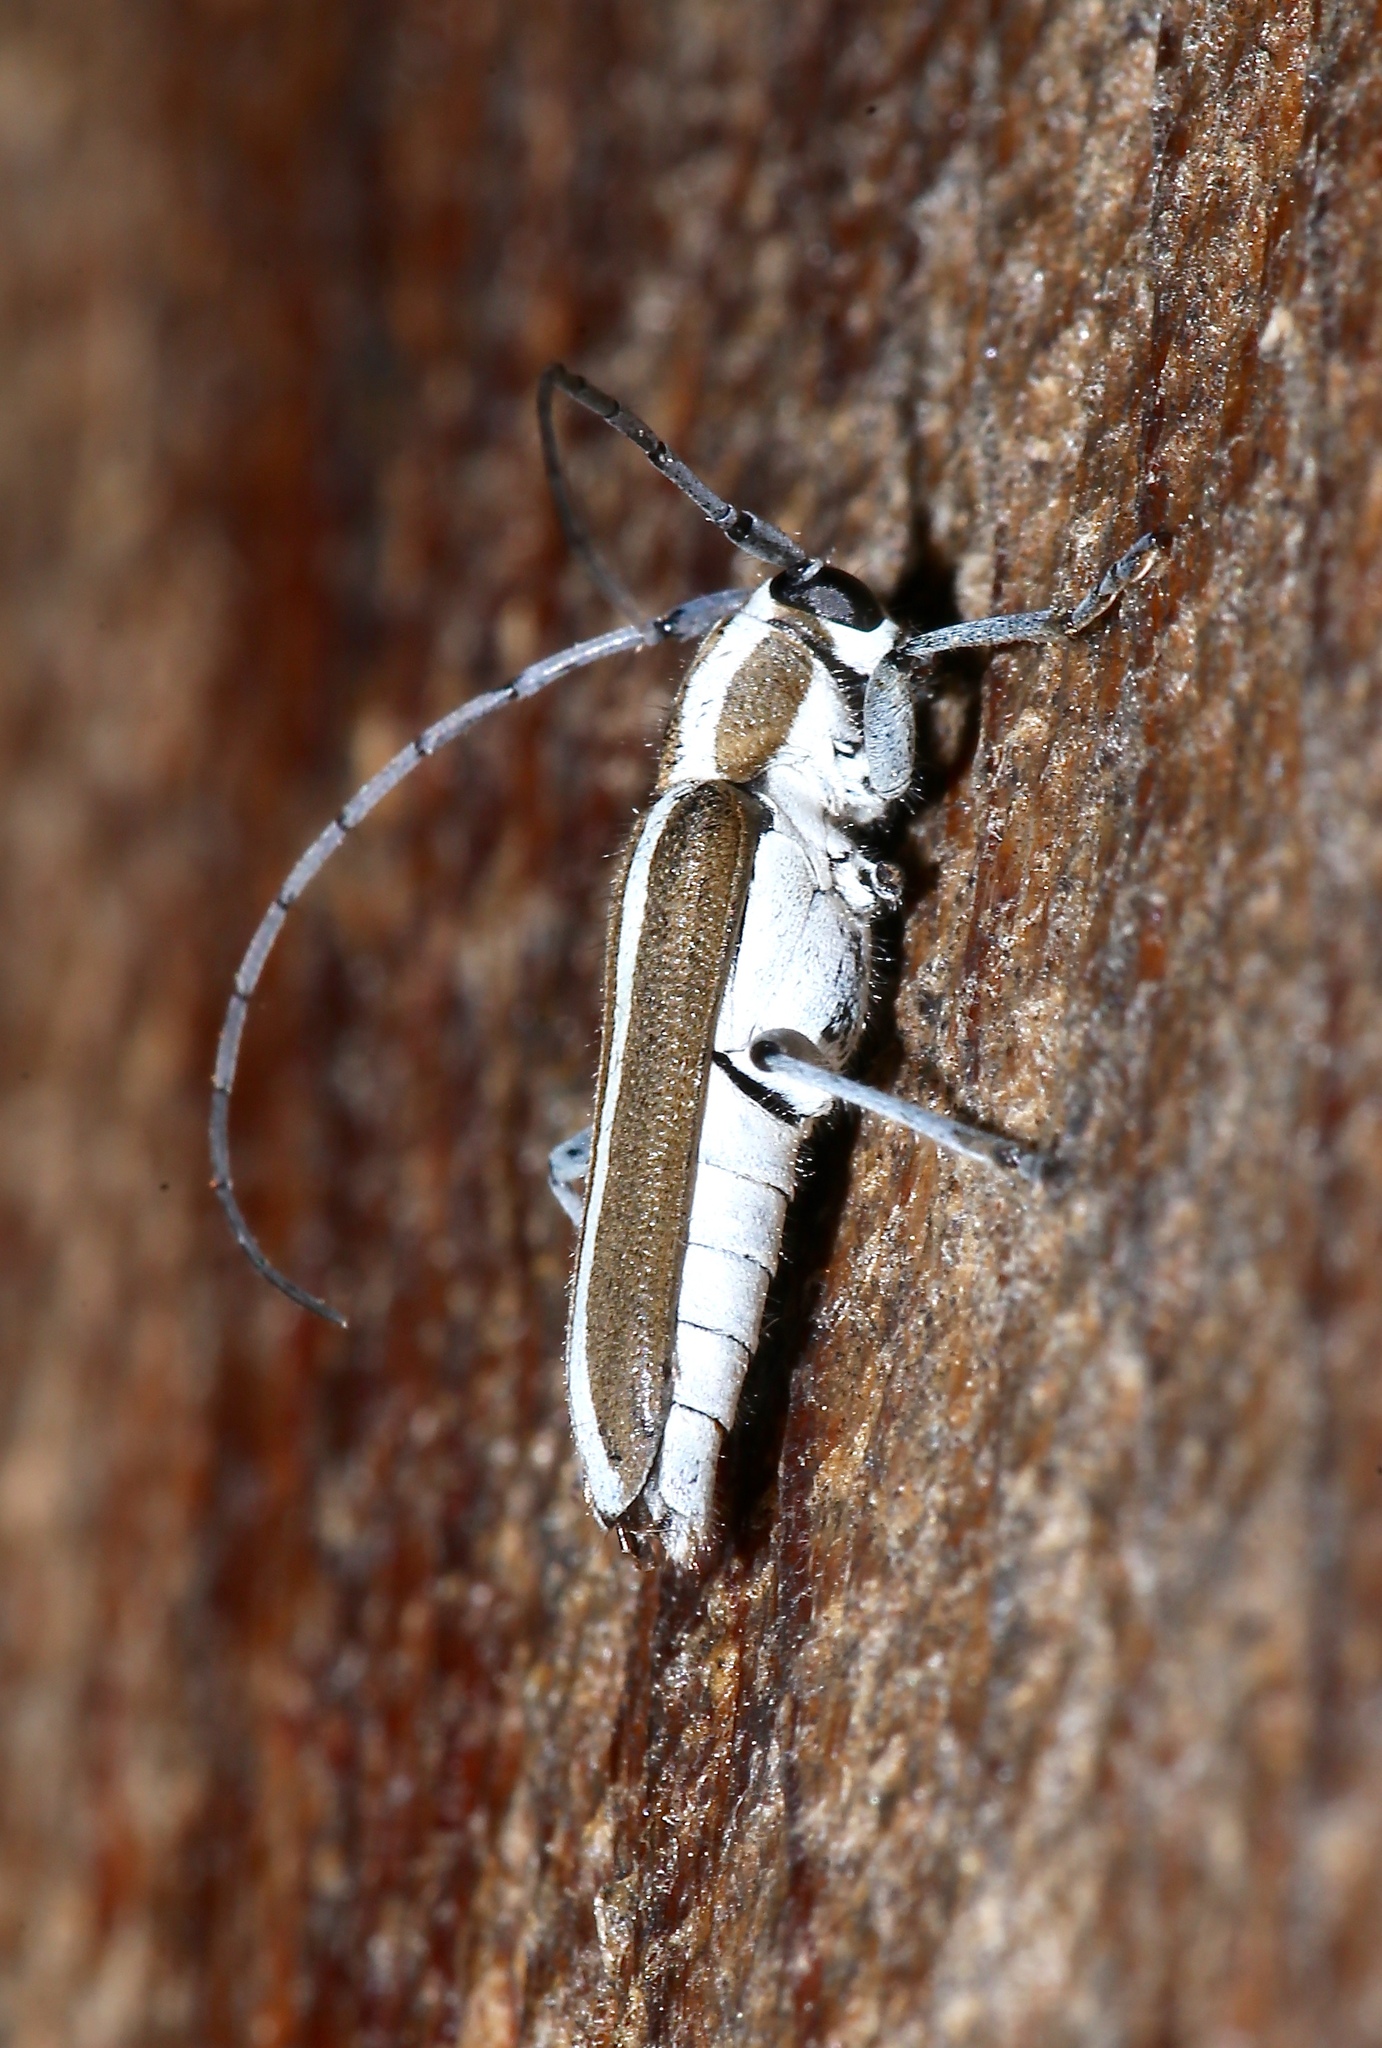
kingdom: Animalia
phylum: Arthropoda
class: Insecta
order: Coleoptera
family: Cerambycidae
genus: Saperda
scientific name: Saperda candida
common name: Round-headed borer
